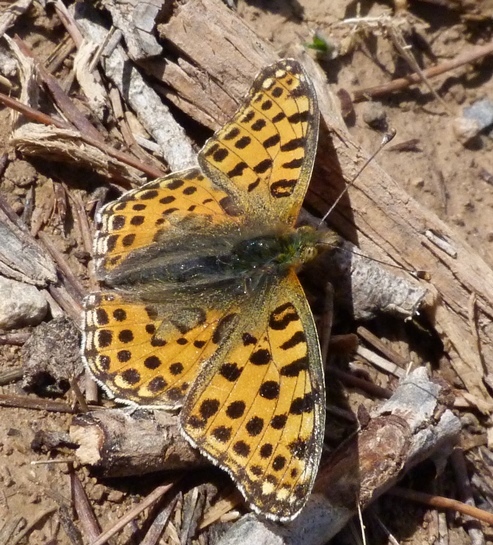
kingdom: Animalia
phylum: Arthropoda
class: Insecta
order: Lepidoptera
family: Nymphalidae
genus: Issoria
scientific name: Issoria lathonia
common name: Queen of spain fritillary
